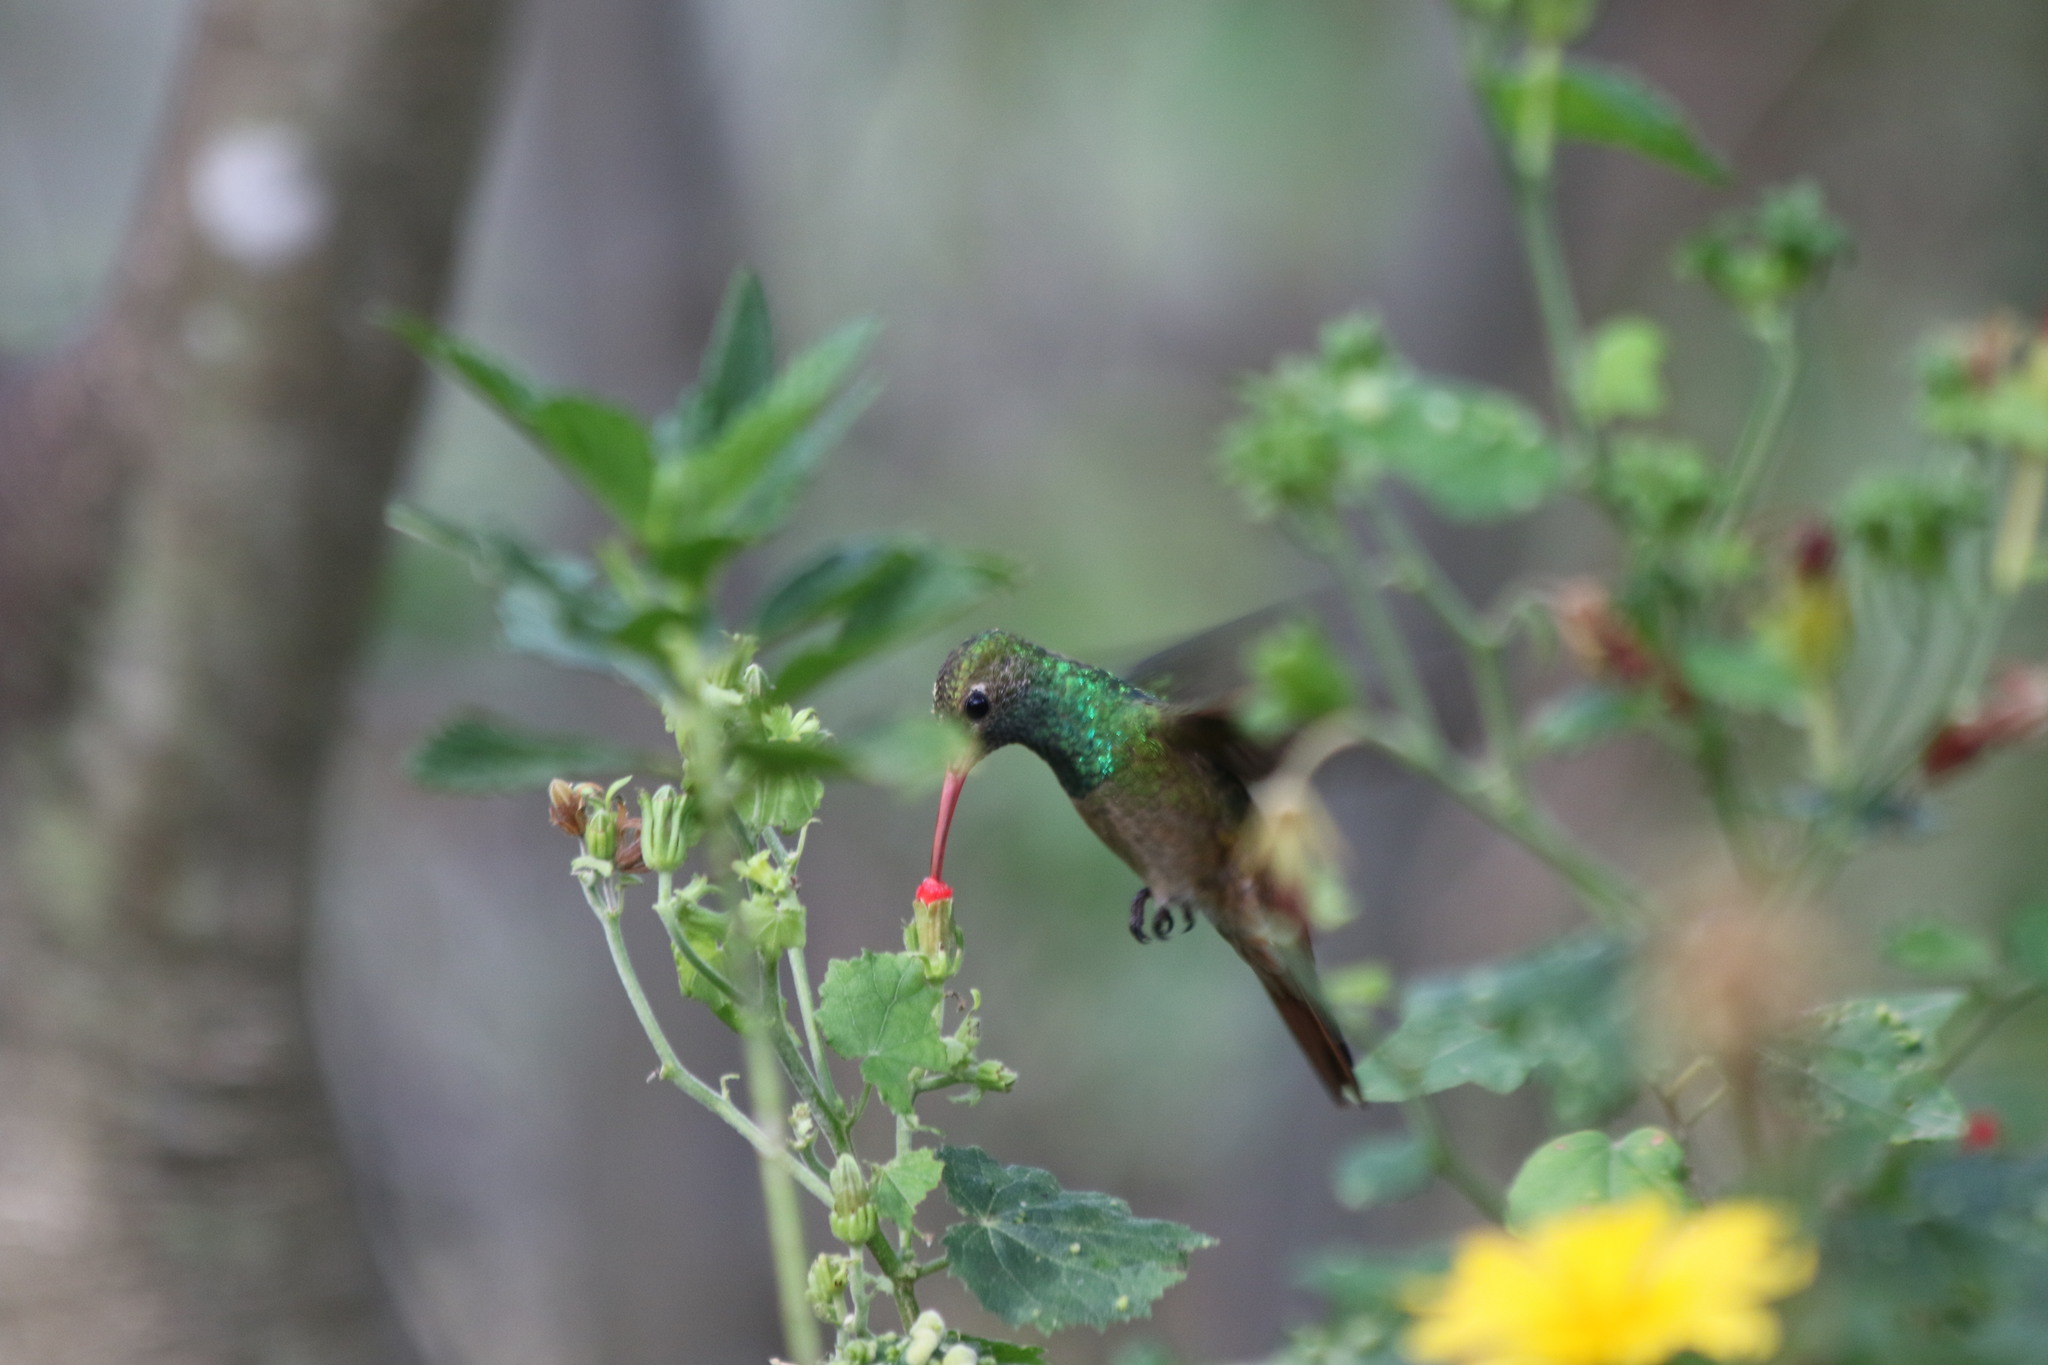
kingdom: Animalia
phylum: Chordata
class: Aves
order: Apodiformes
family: Trochilidae
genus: Amazilia
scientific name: Amazilia yucatanensis
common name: Buff-bellied hummingbird
